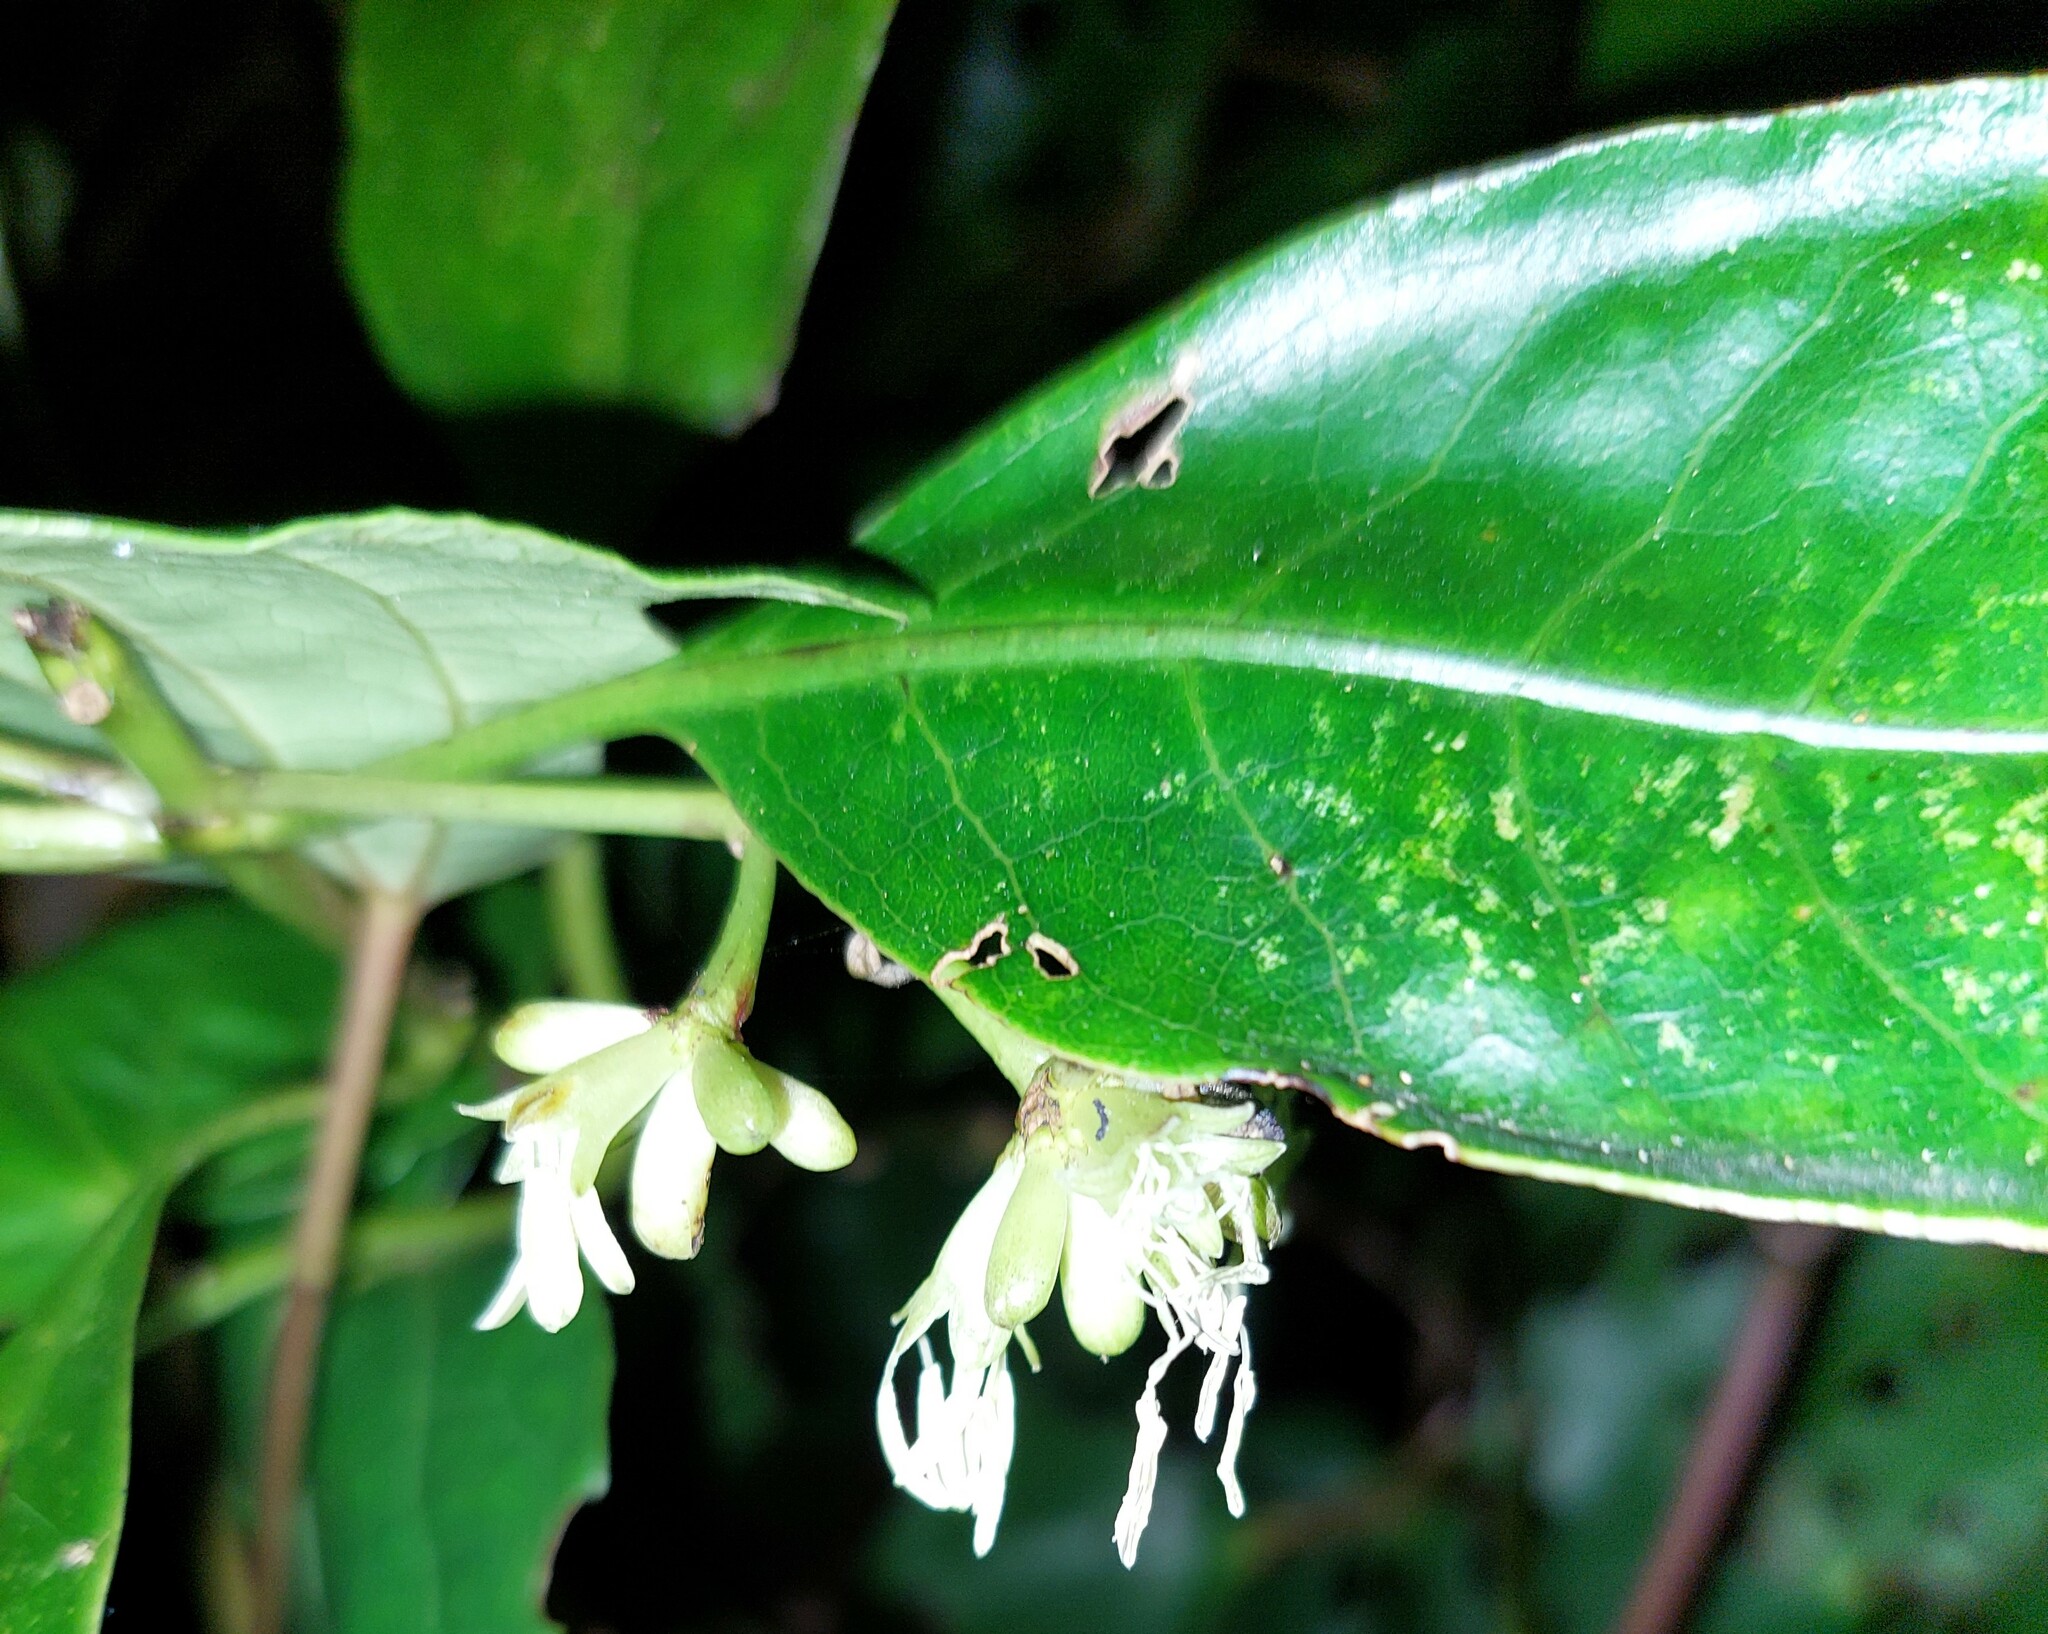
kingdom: Plantae
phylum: Tracheophyta
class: Magnoliopsida
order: Gentianales
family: Rubiaceae
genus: Coprosma
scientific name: Coprosma autumnalis
